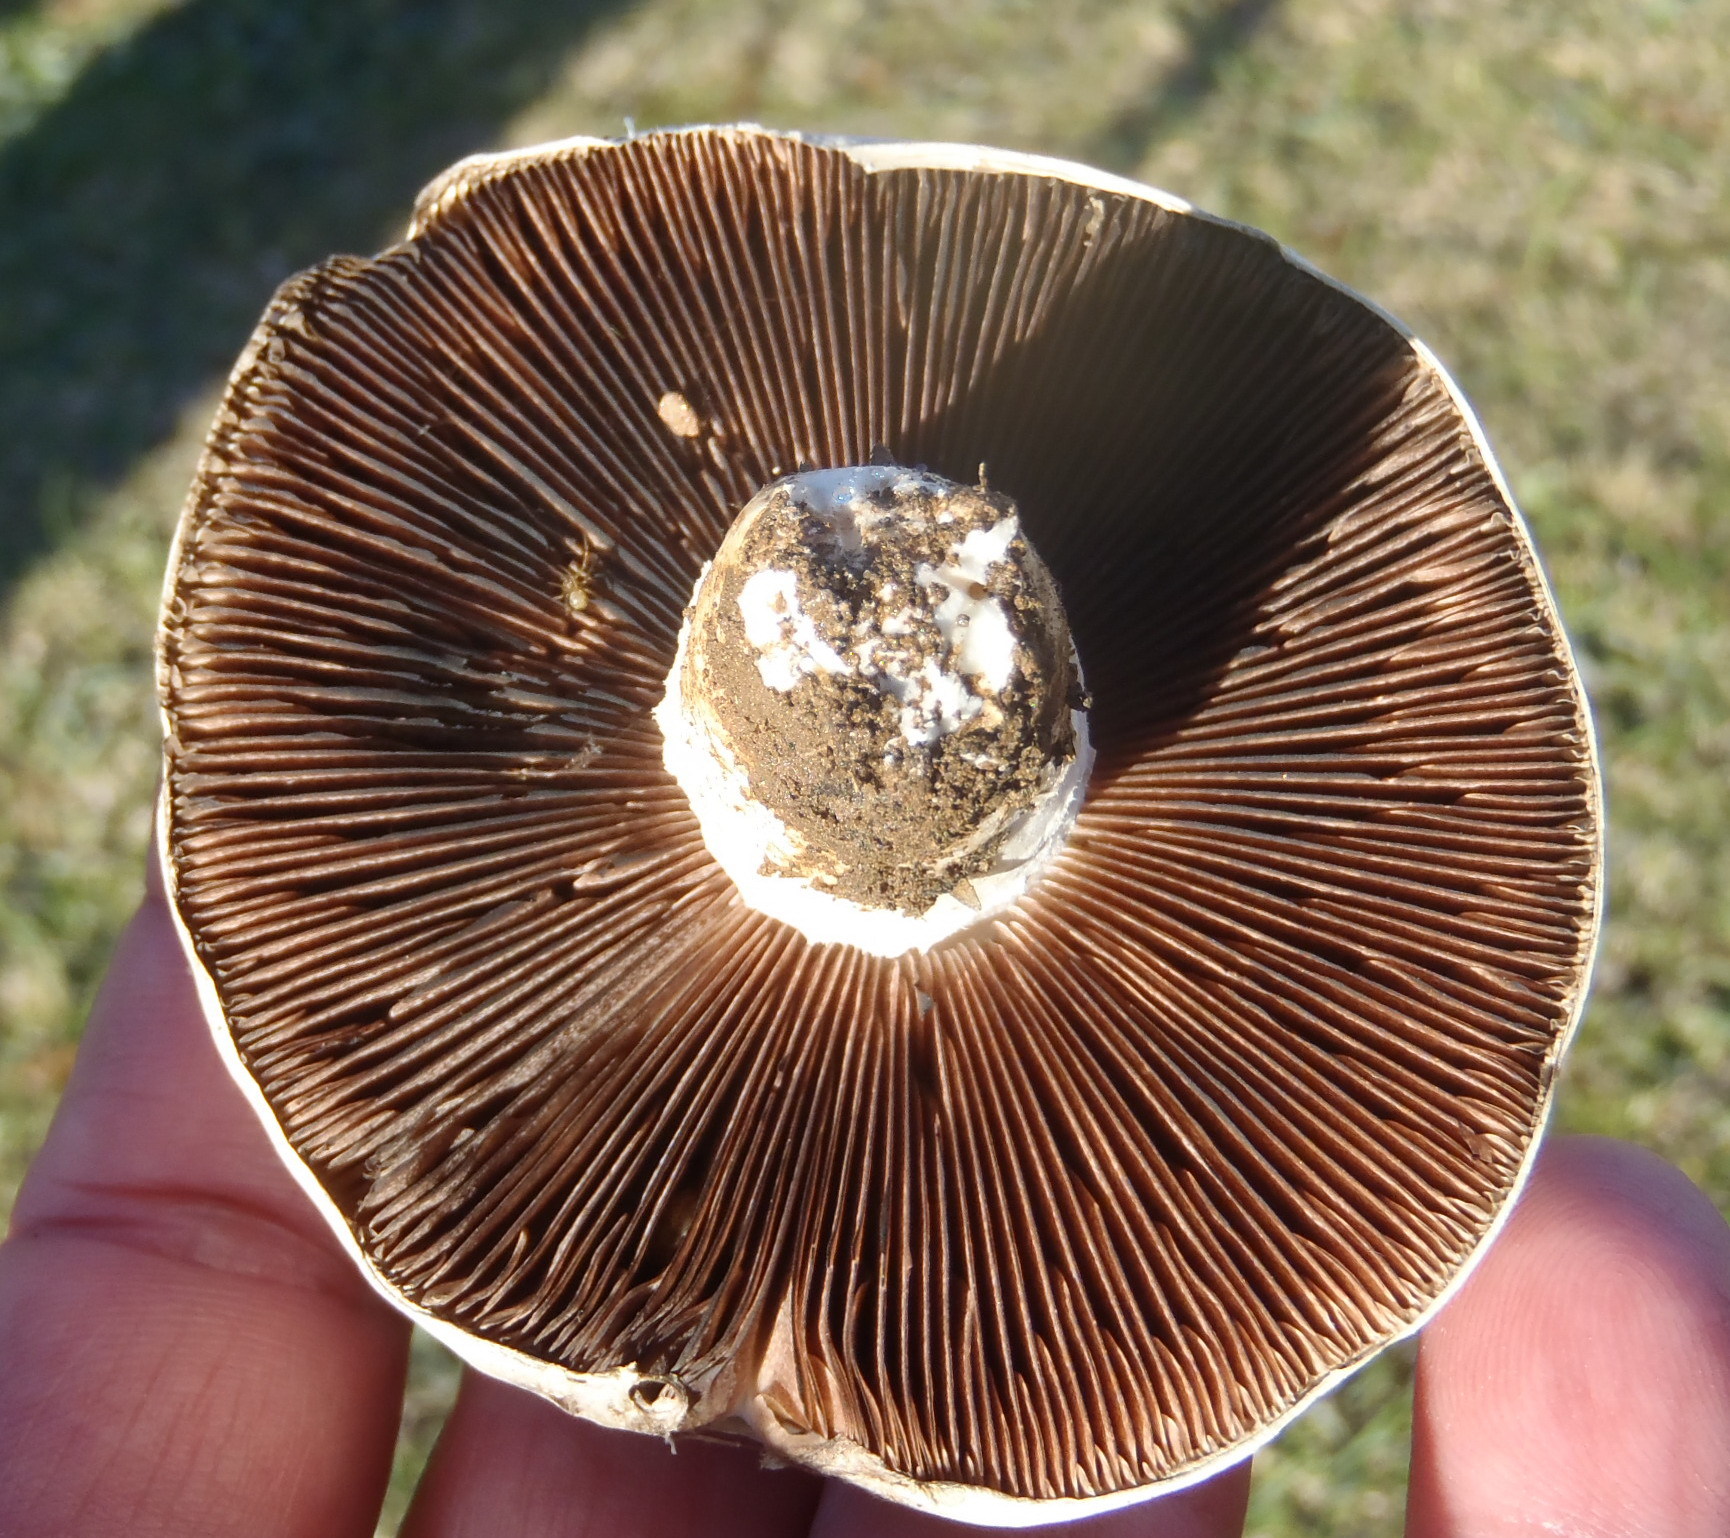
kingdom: Fungi
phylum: Basidiomycota
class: Agaricomycetes
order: Agaricales
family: Agaricaceae
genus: Agaricus
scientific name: Agaricus campestris
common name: Field mushroom
